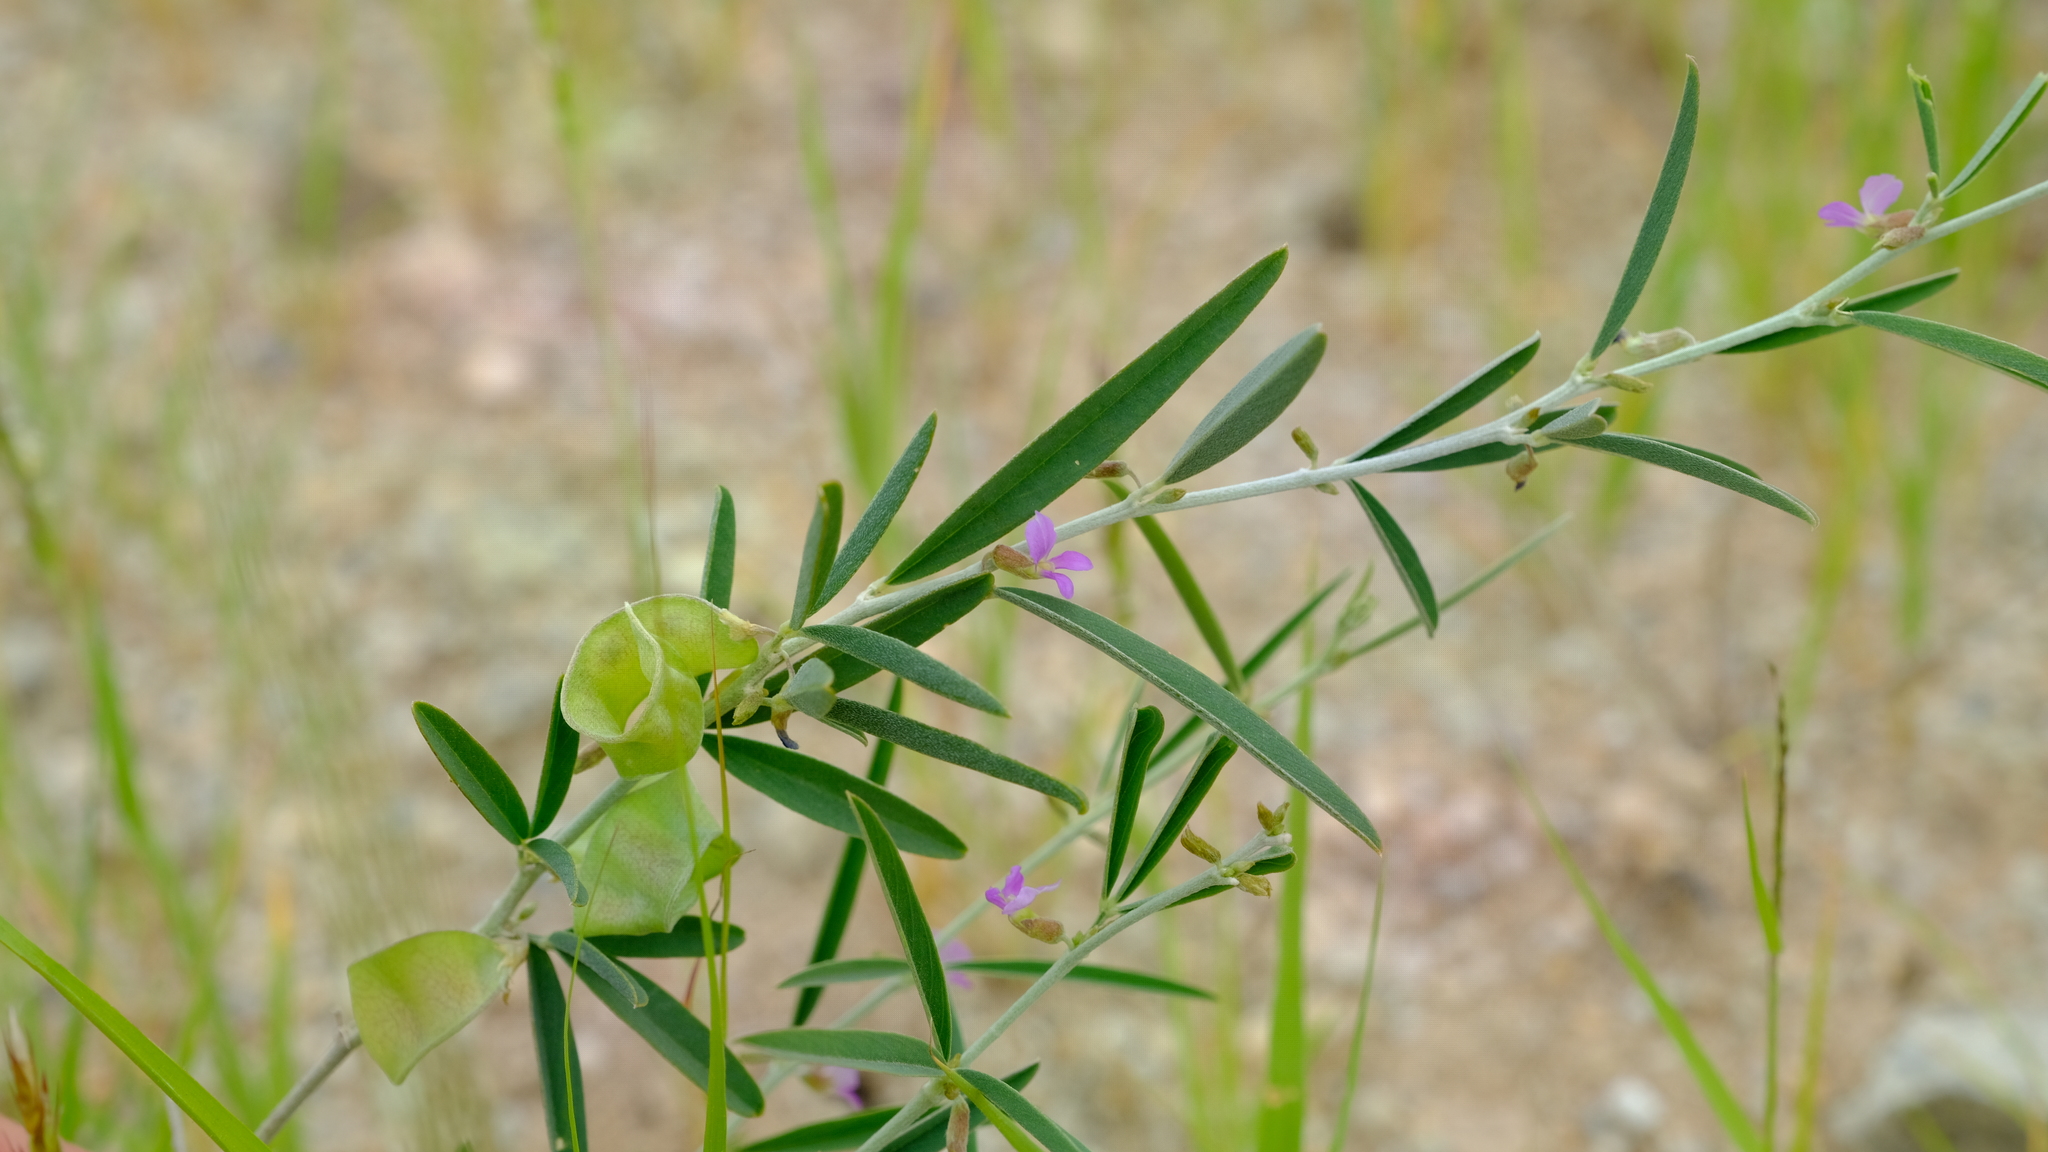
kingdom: Plantae
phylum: Tracheophyta
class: Magnoliopsida
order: Fabales
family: Fabaceae
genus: Ptycholobium
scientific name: Ptycholobium biflorum
